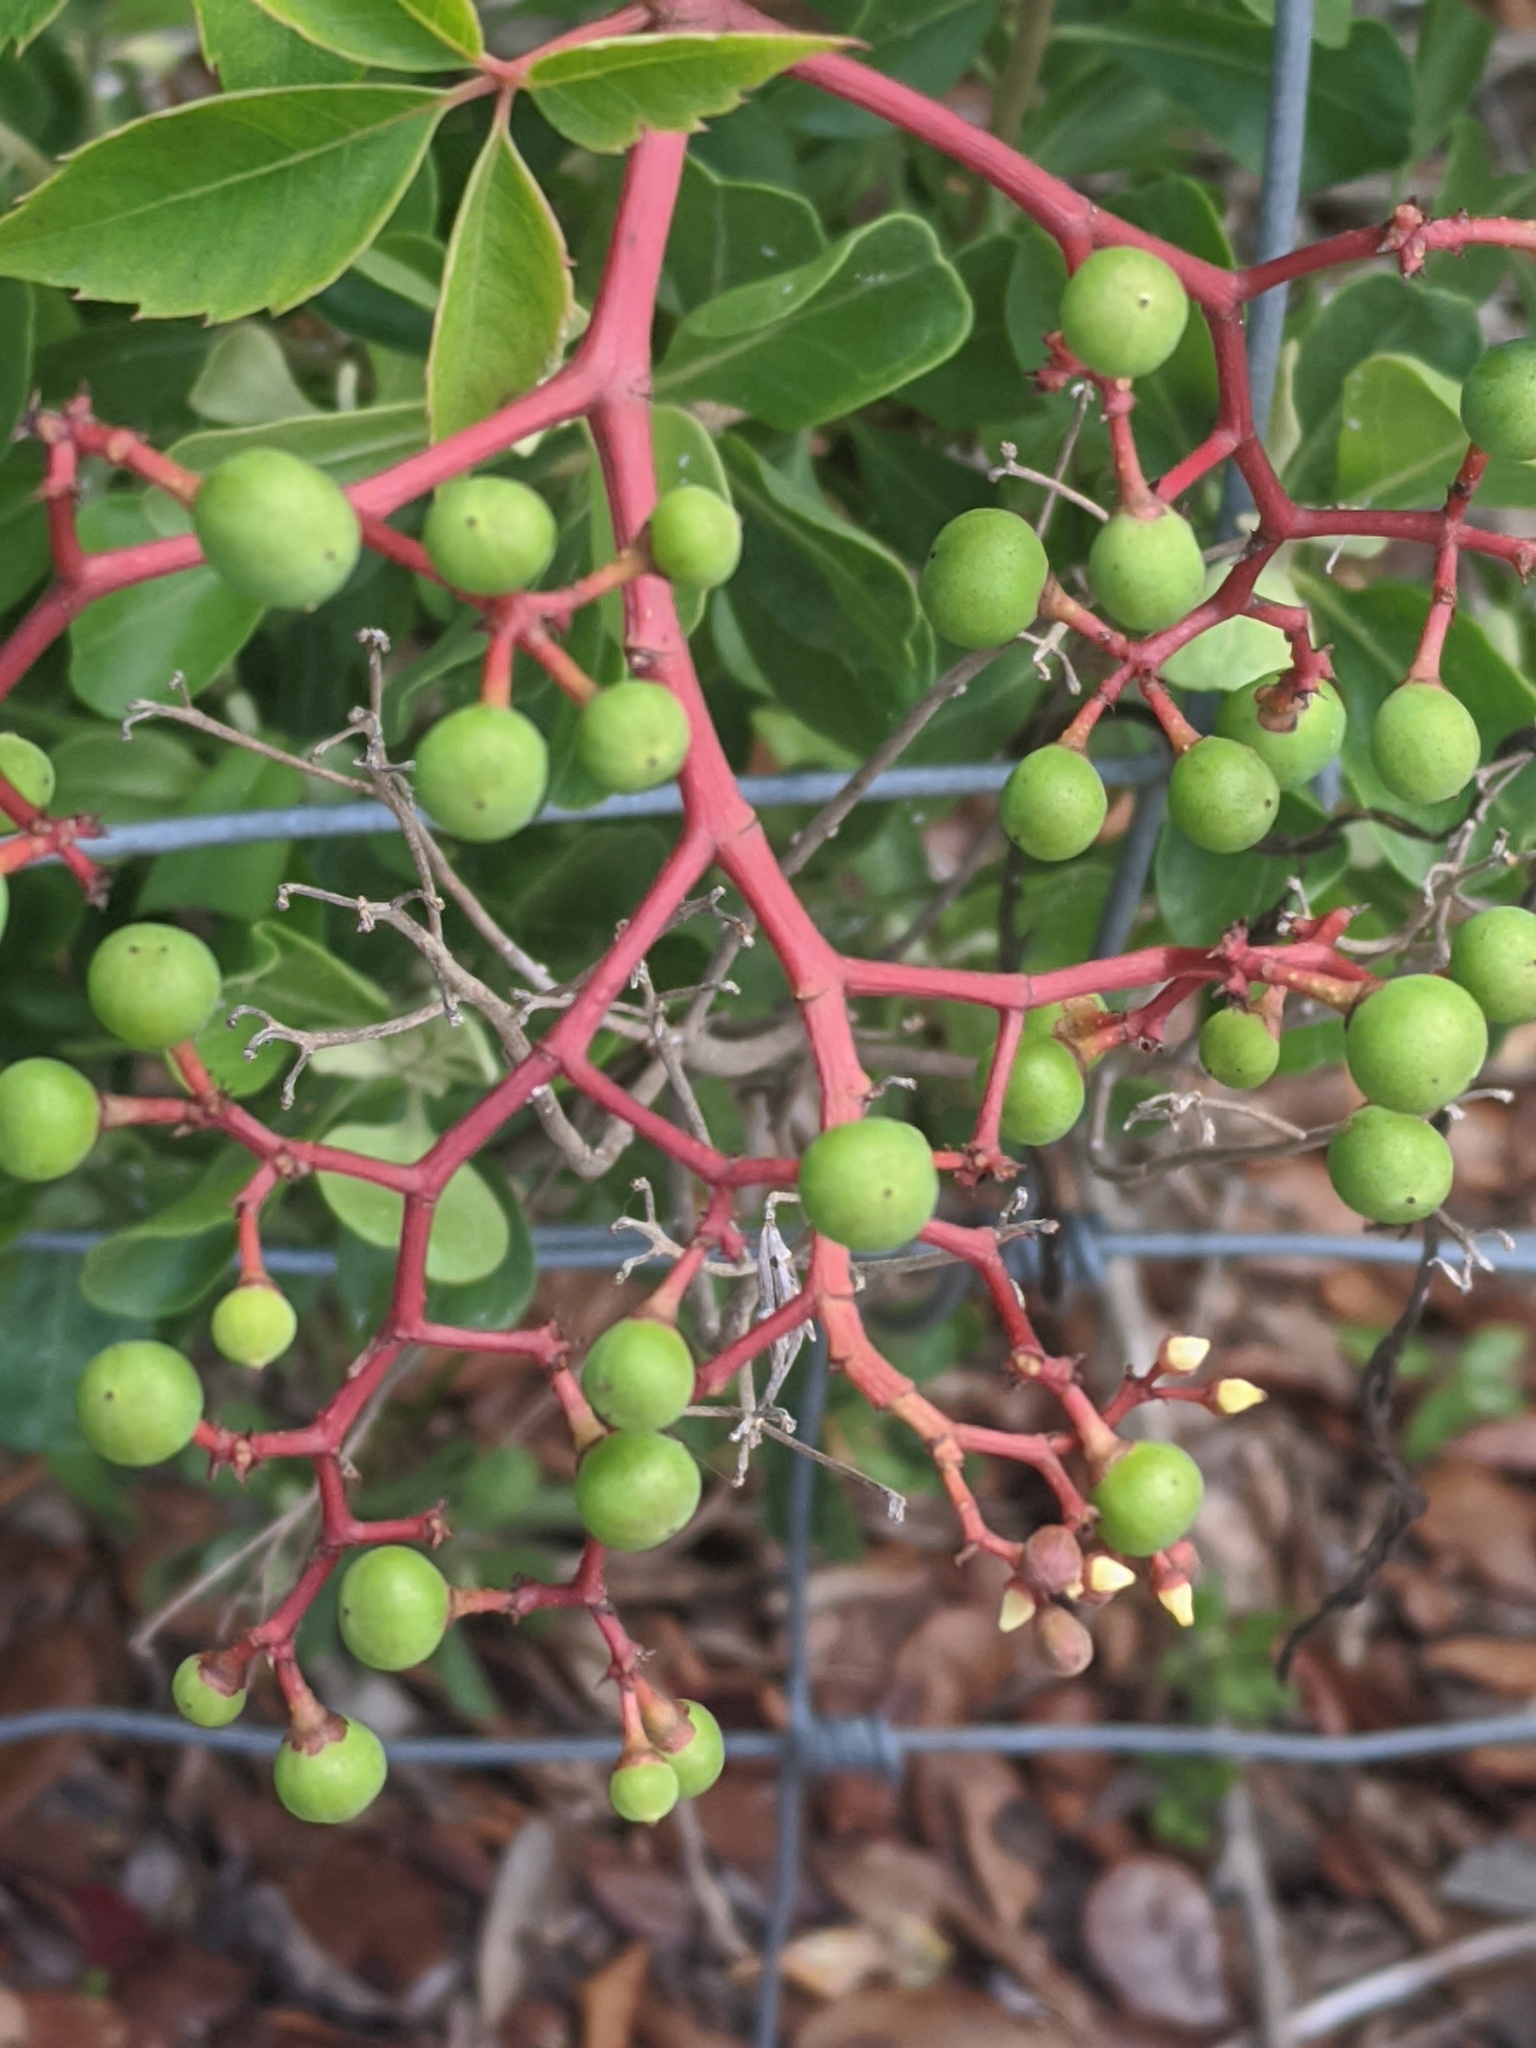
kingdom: Plantae
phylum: Tracheophyta
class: Magnoliopsida
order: Vitales
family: Vitaceae
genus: Parthenocissus
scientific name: Parthenocissus quinquefolia
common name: Virginia-creeper
